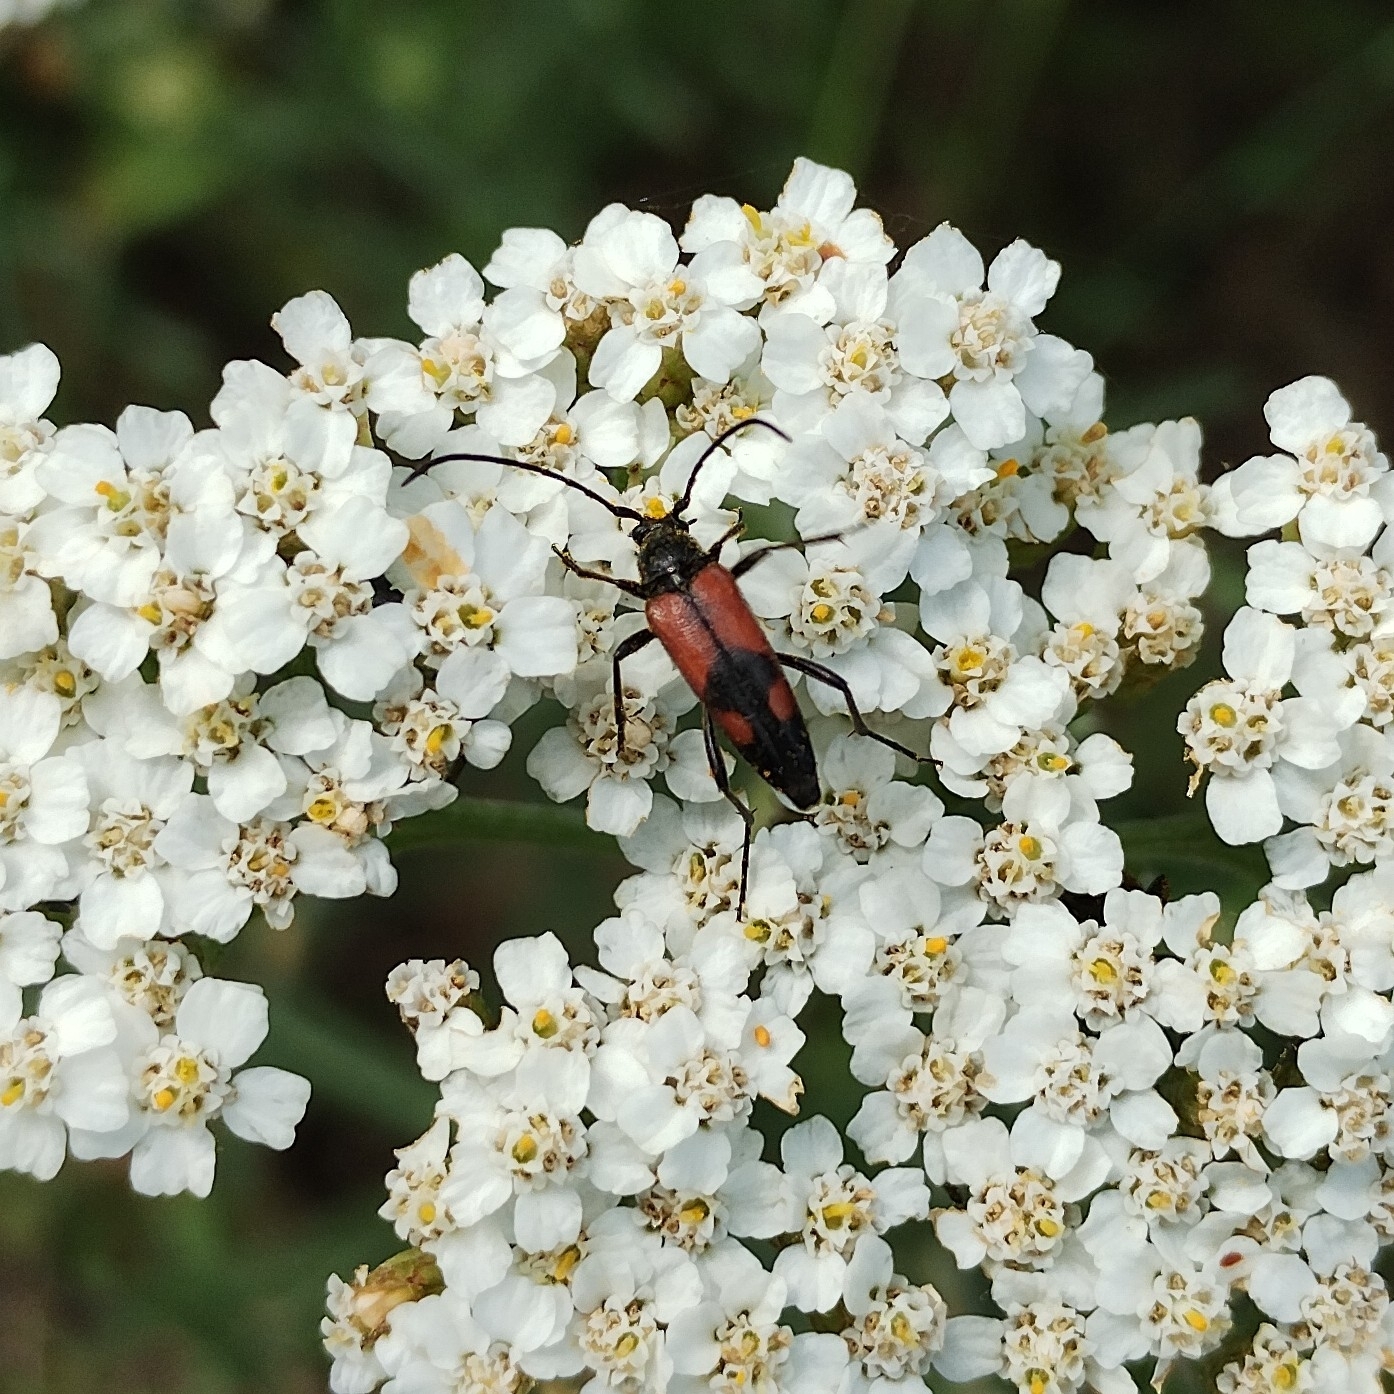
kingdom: Animalia
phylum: Arthropoda
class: Insecta
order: Coleoptera
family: Cerambycidae
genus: Stenurella
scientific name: Stenurella bifasciata
